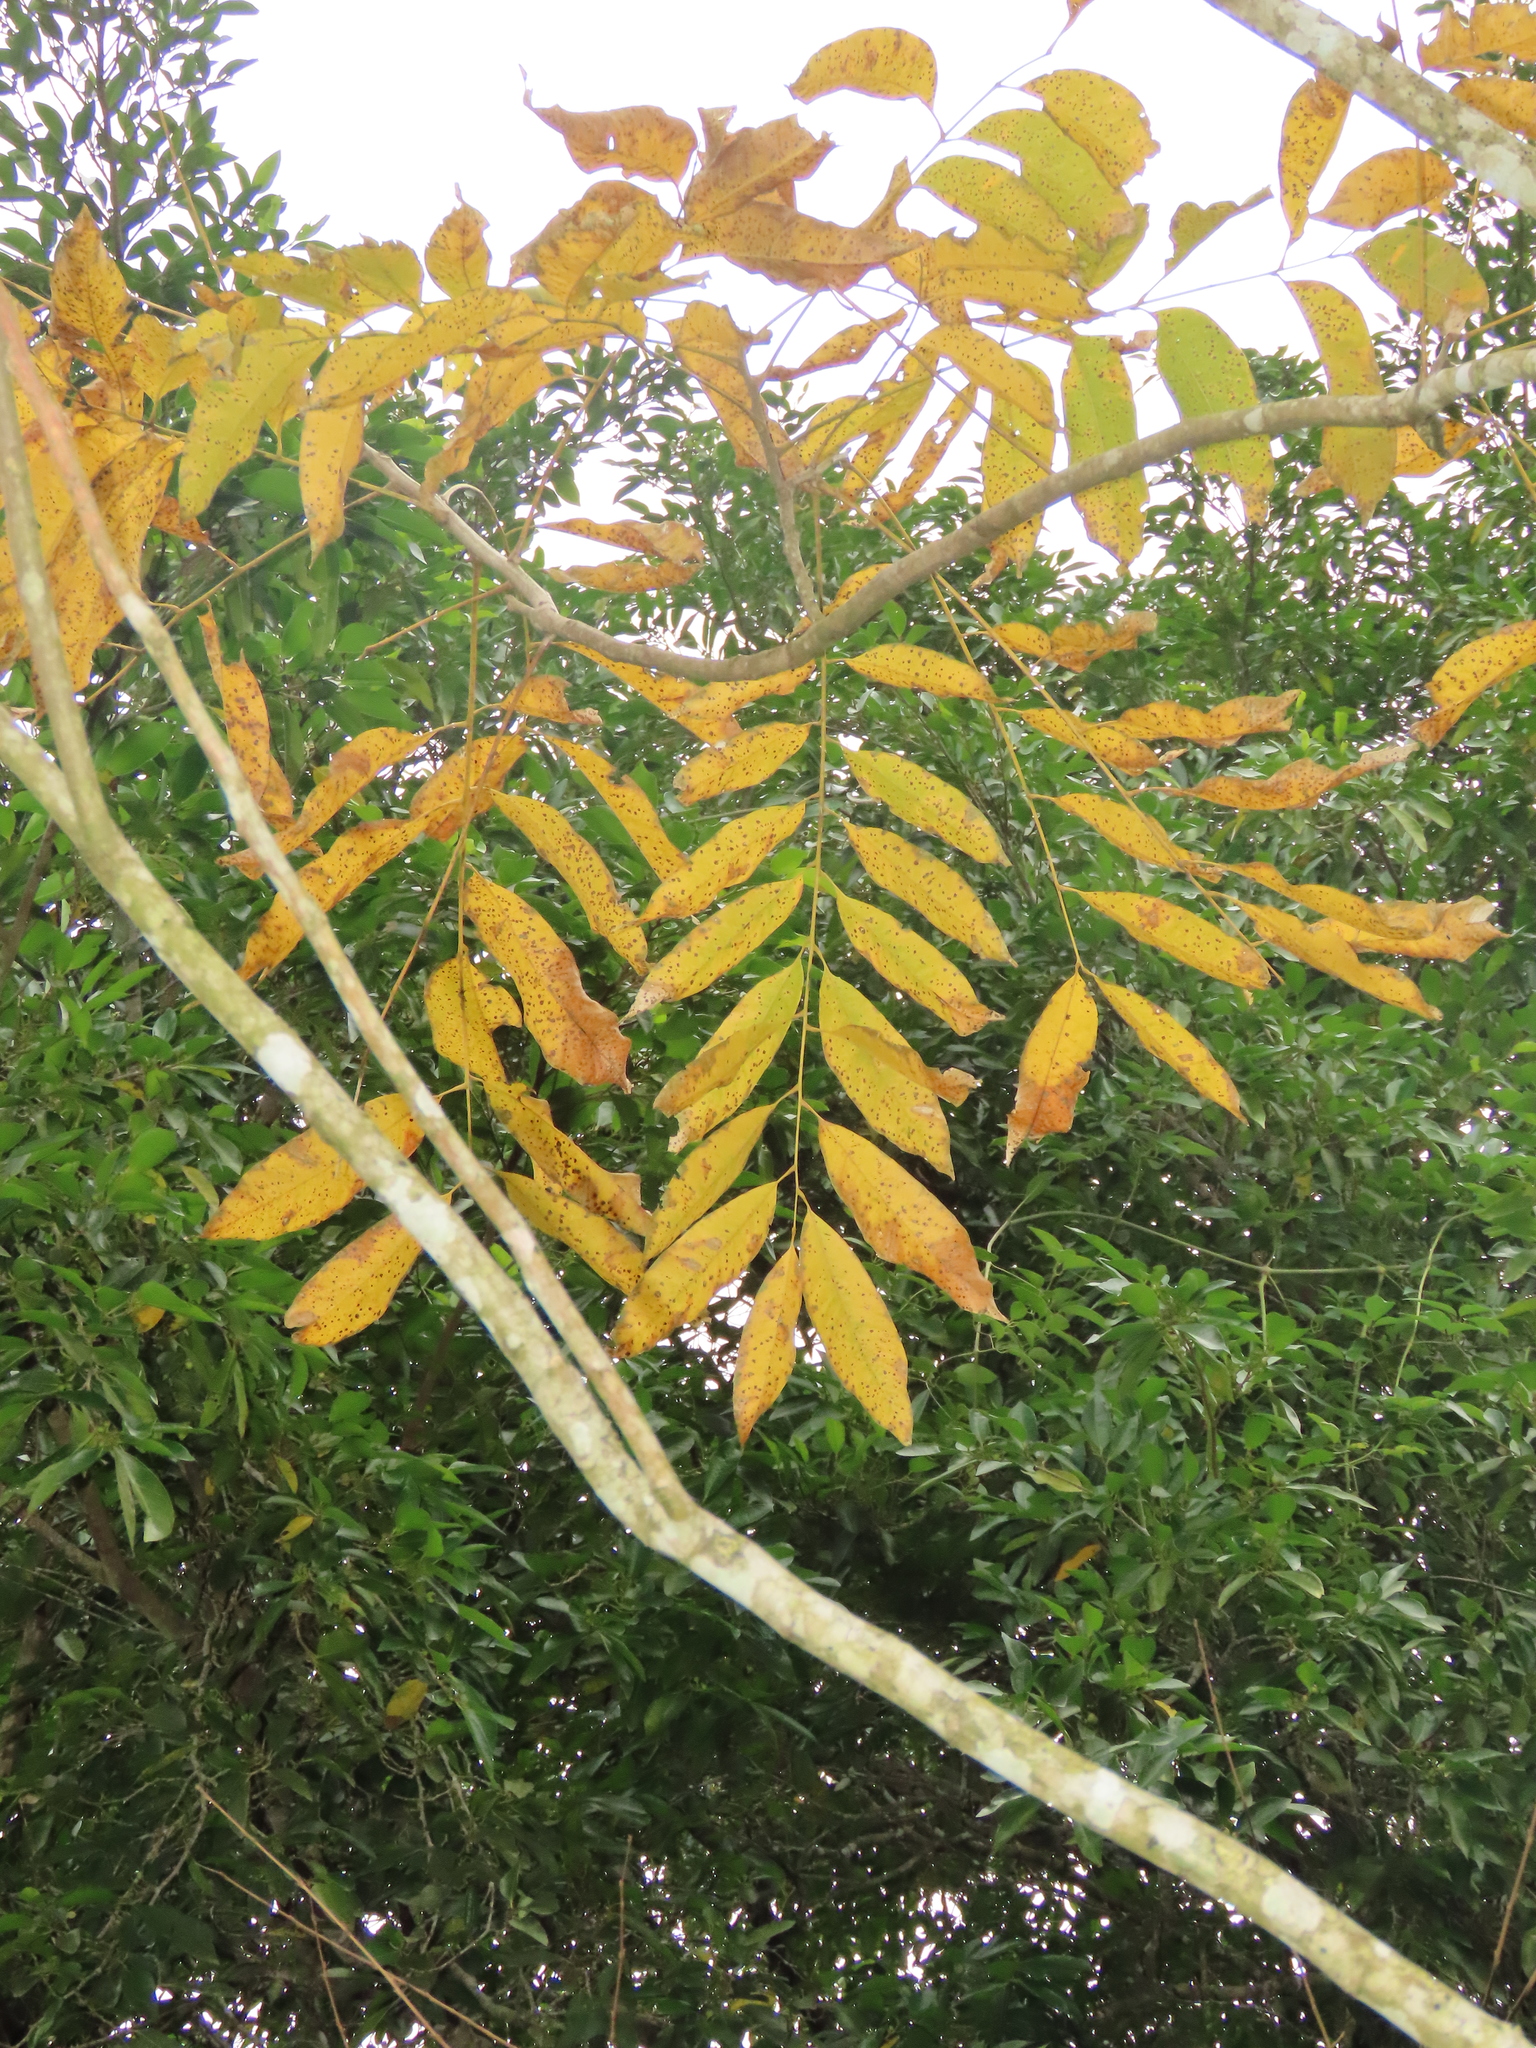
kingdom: Plantae
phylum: Tracheophyta
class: Magnoliopsida
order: Sapindales
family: Sapindaceae
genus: Sapindus
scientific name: Sapindus mukorossi
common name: Chinese soapberry
